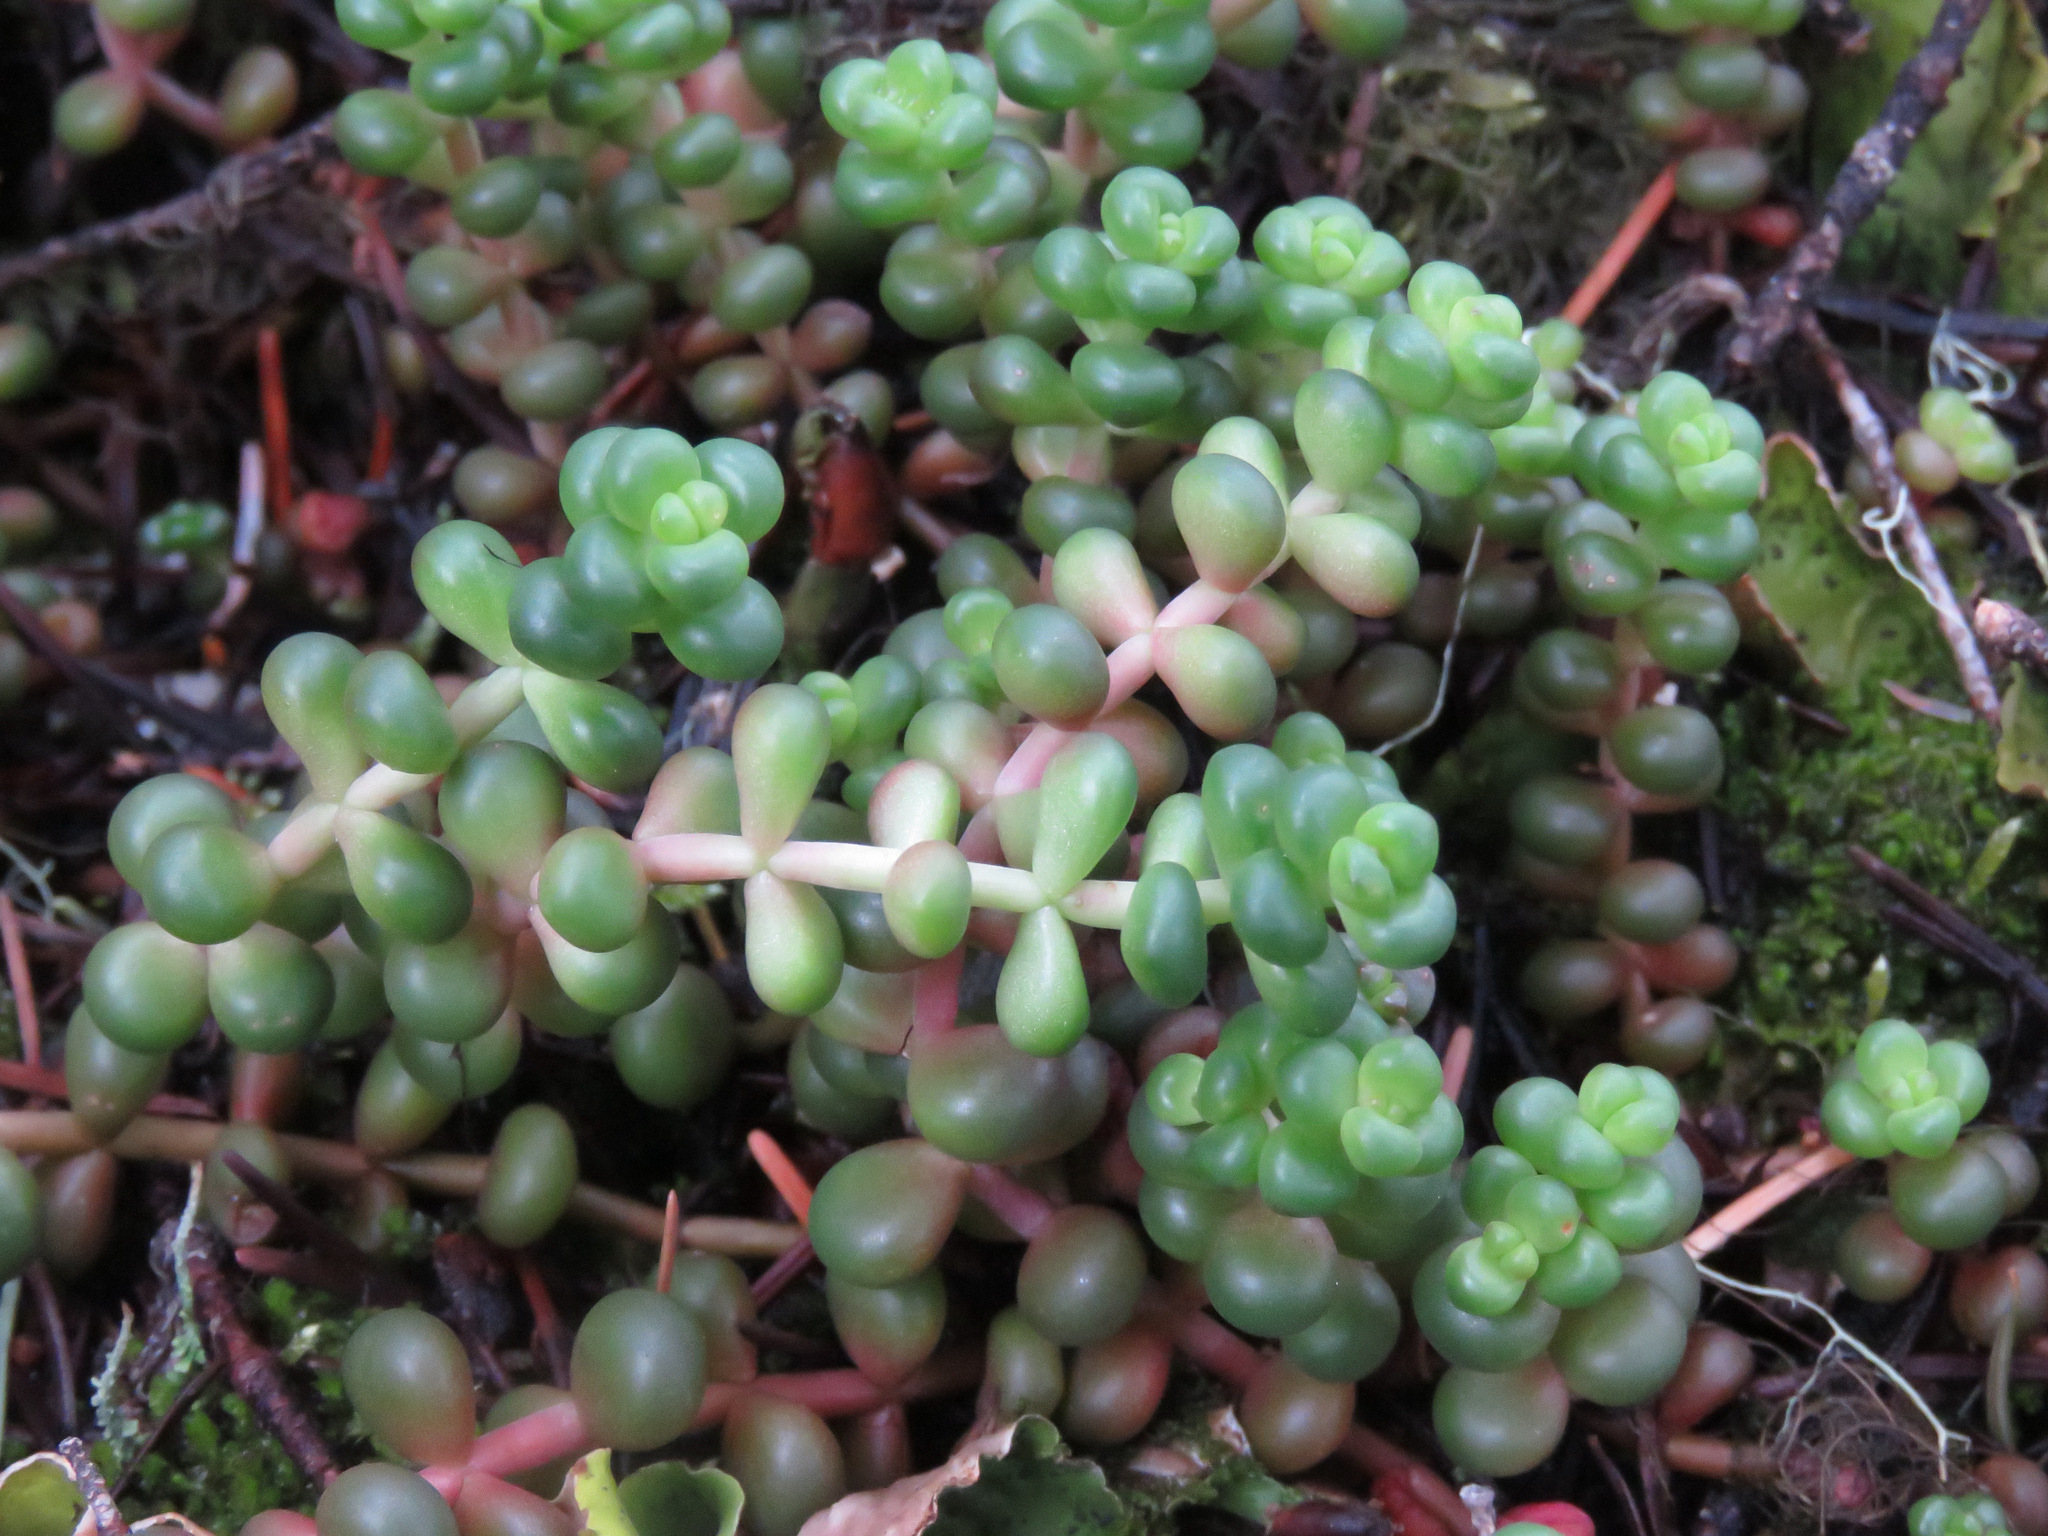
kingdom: Plantae
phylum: Tracheophyta
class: Magnoliopsida
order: Saxifragales
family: Crassulaceae
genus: Sedum
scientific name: Sedum divergens
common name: Cascade stonecrop
